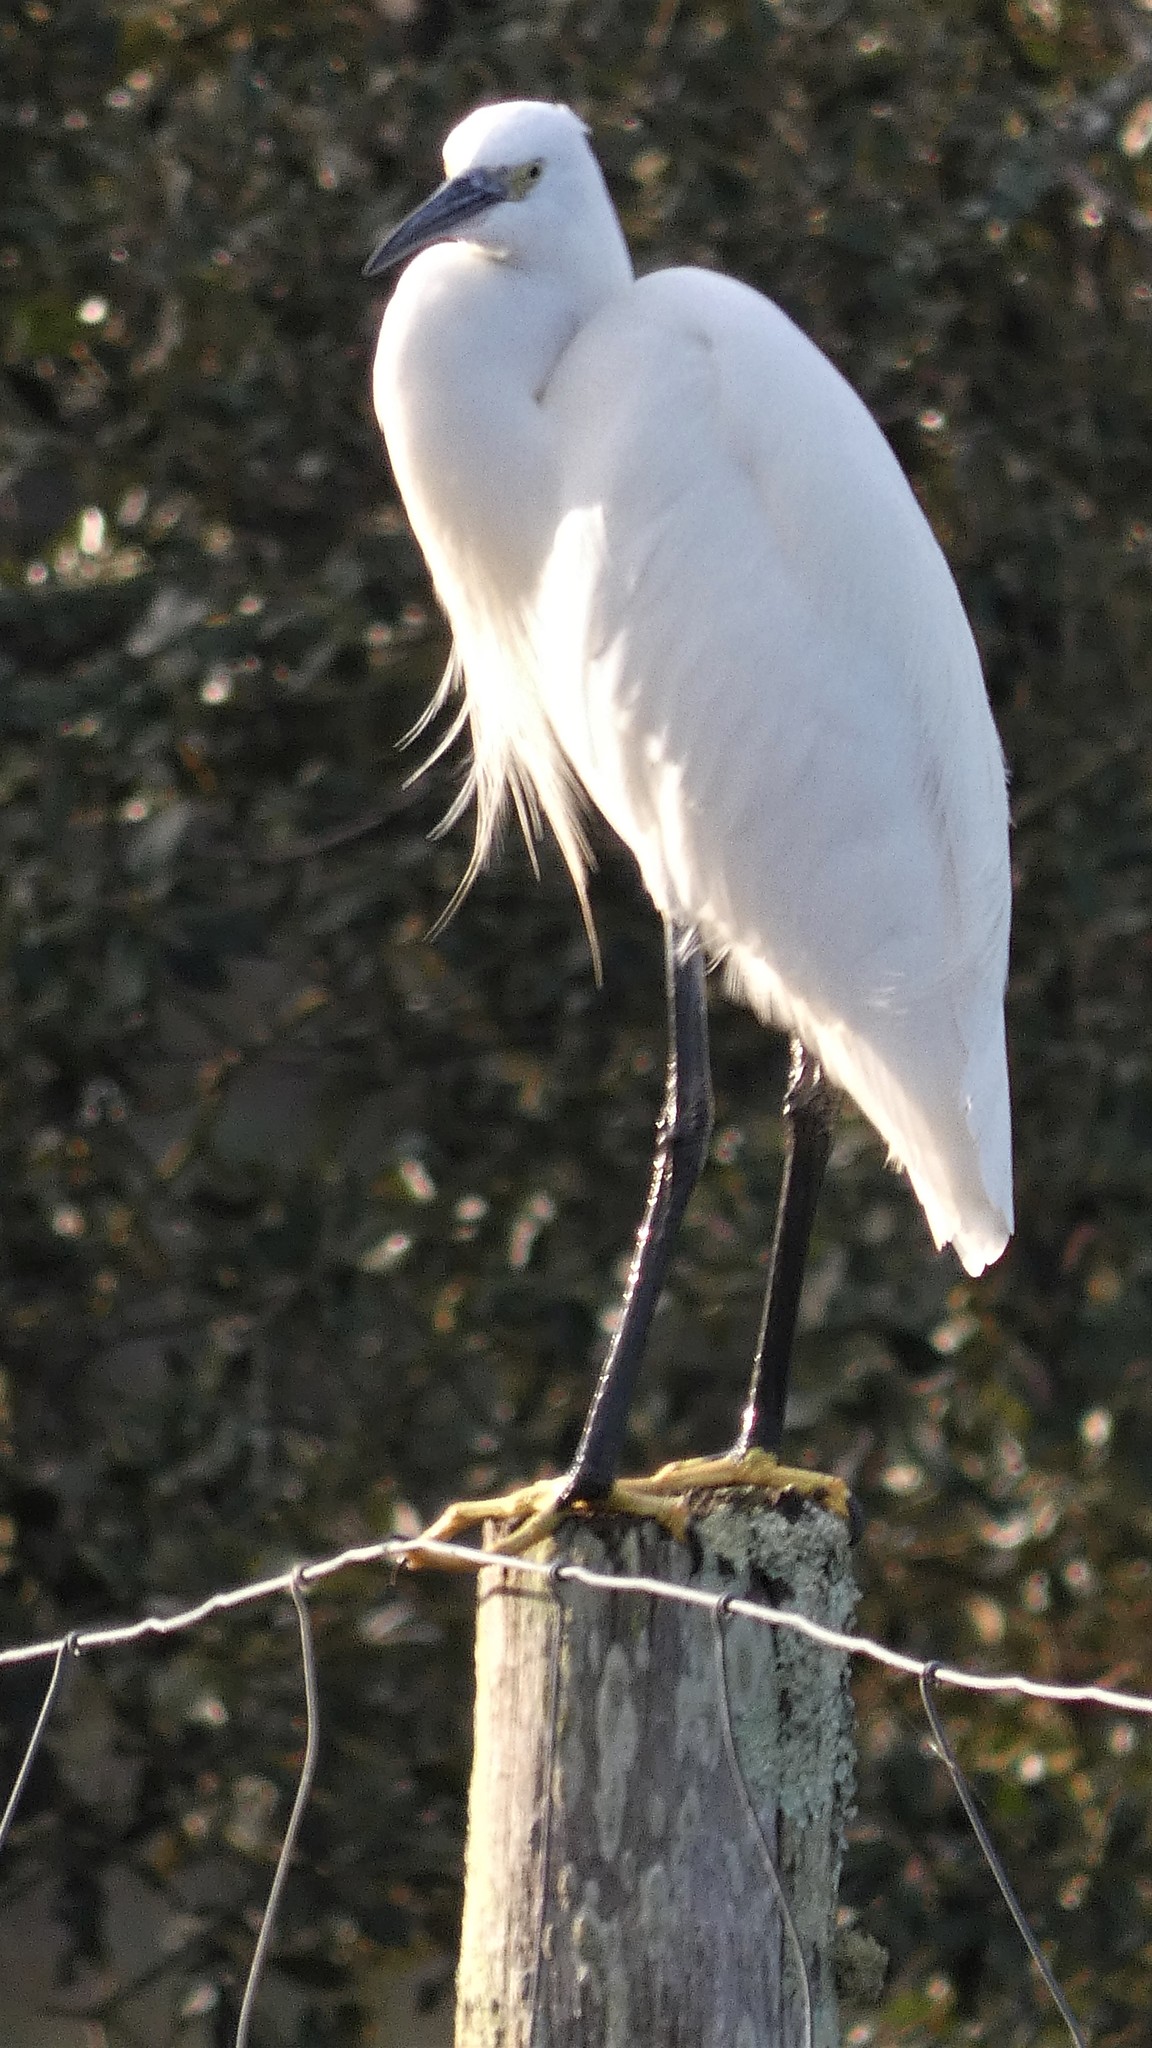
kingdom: Animalia
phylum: Chordata
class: Aves
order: Pelecaniformes
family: Ardeidae
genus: Egretta
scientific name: Egretta garzetta
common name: Little egret
